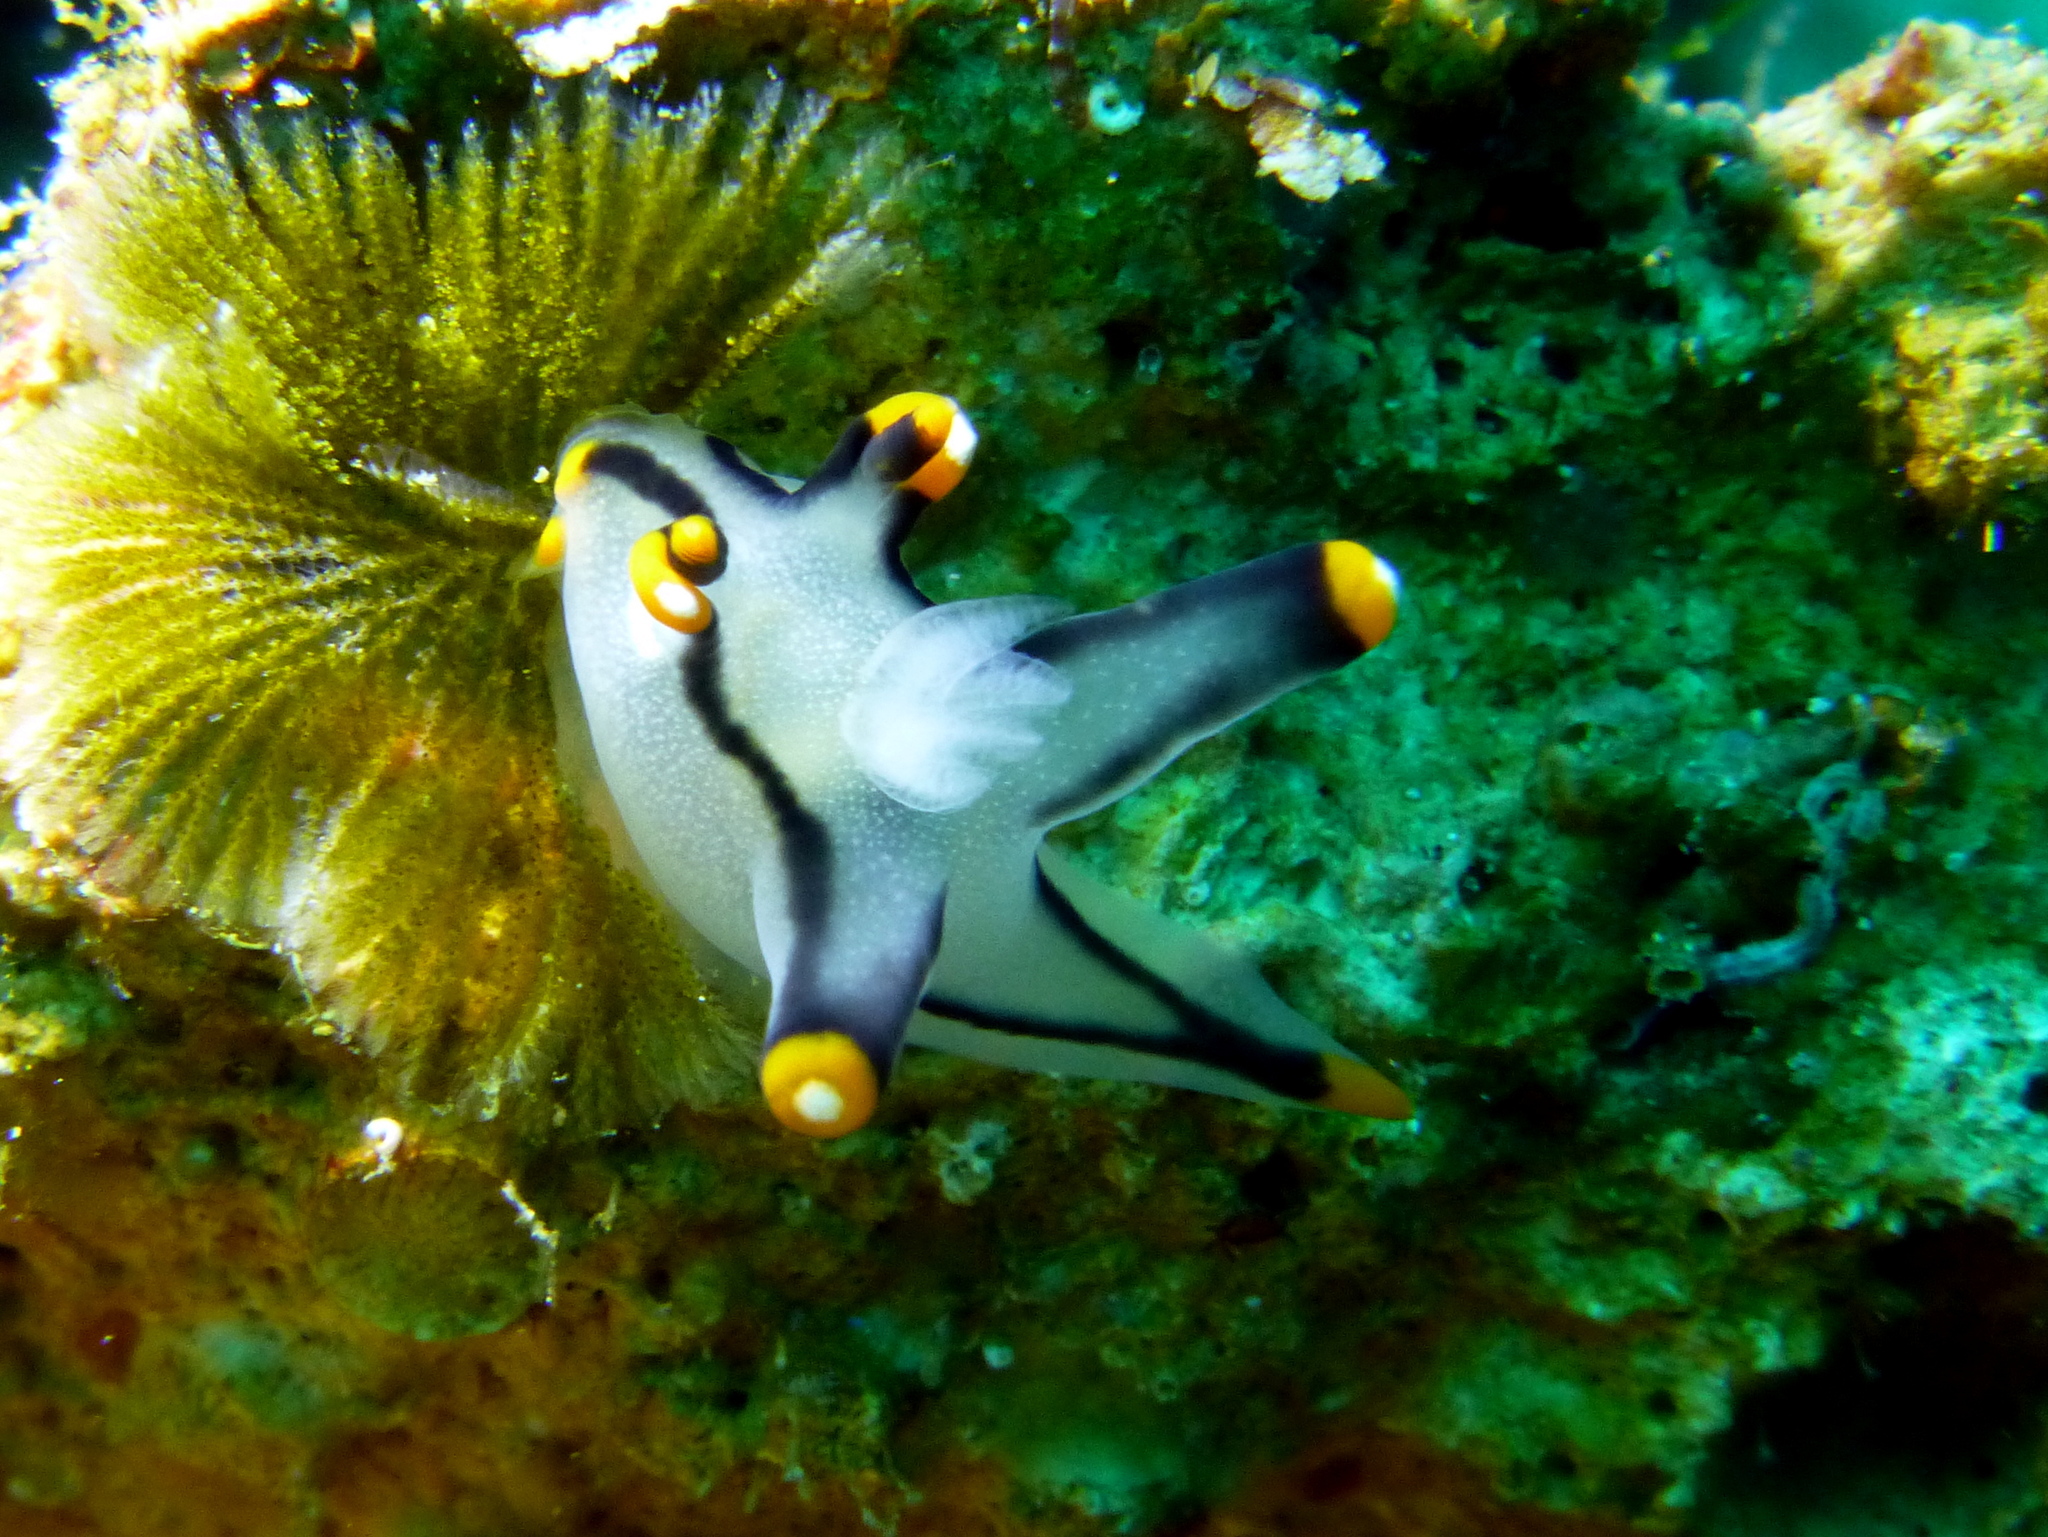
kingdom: Animalia
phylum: Mollusca
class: Gastropoda
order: Nudibranchia
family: Polyceridae
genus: Thecacera
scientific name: Thecacera picta
